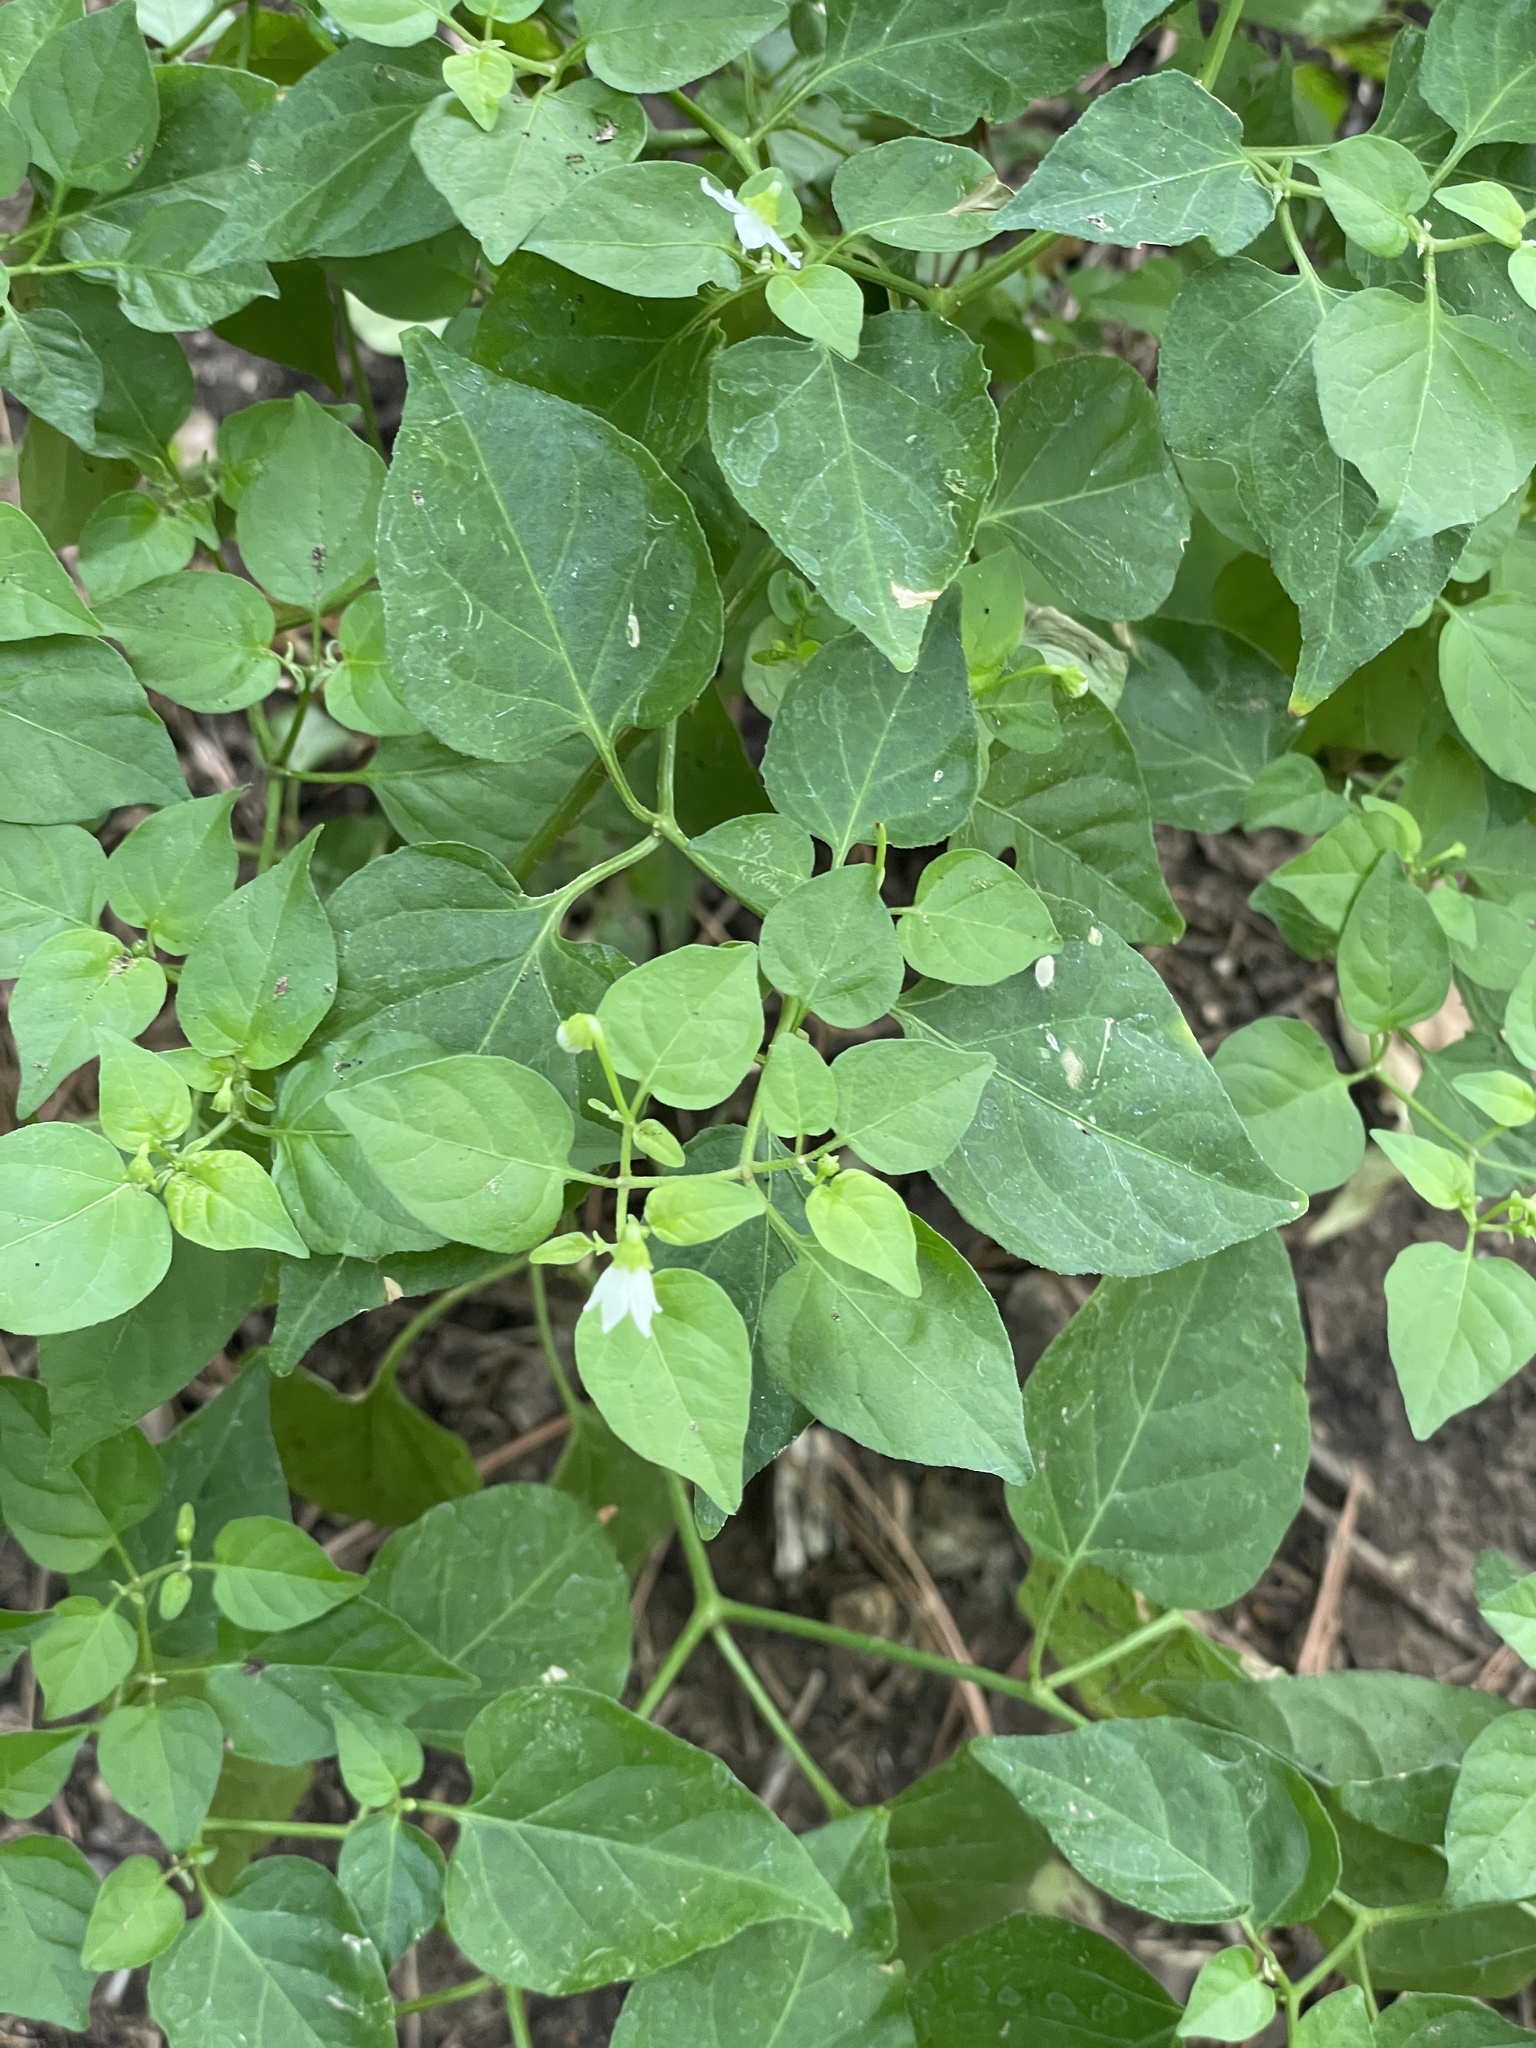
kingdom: Plantae
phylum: Tracheophyta
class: Magnoliopsida
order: Solanales
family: Solanaceae
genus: Capsicum
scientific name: Capsicum annuum
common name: Sweet pepper
